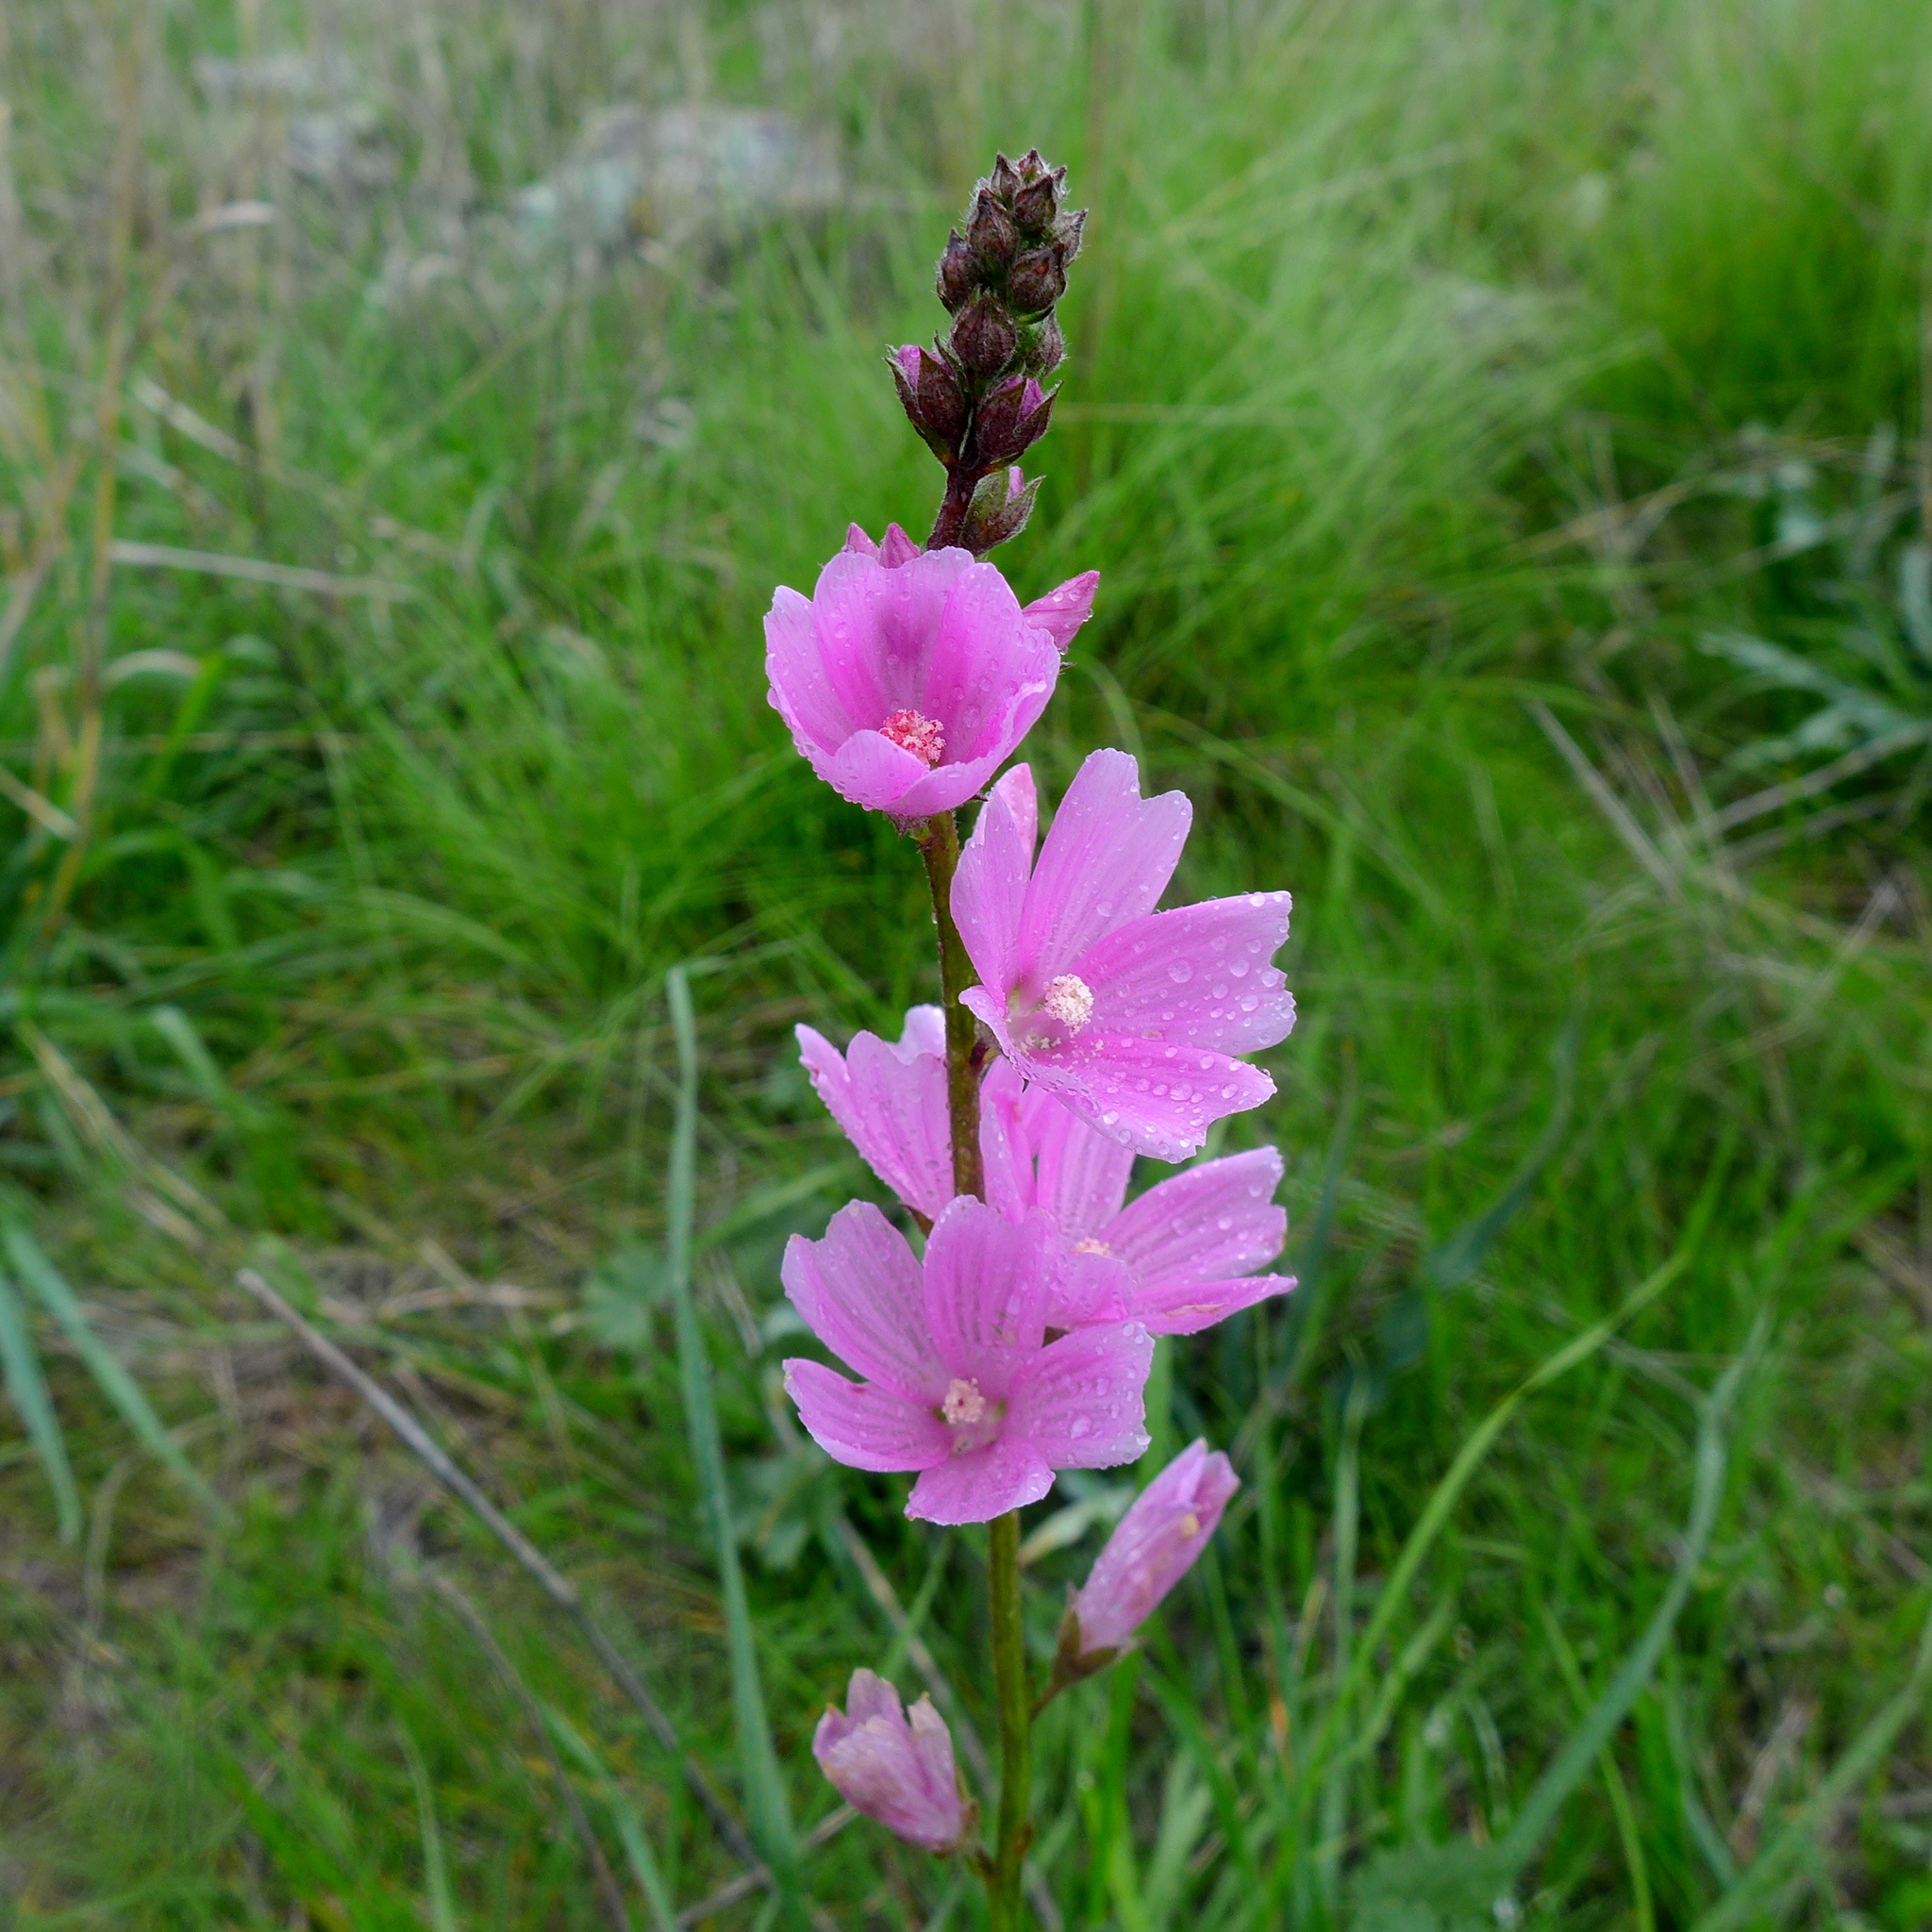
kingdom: Plantae
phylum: Tracheophyta
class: Magnoliopsida
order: Malvales
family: Malvaceae
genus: Sidalcea
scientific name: Sidalcea malviflora
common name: Greek mallow
